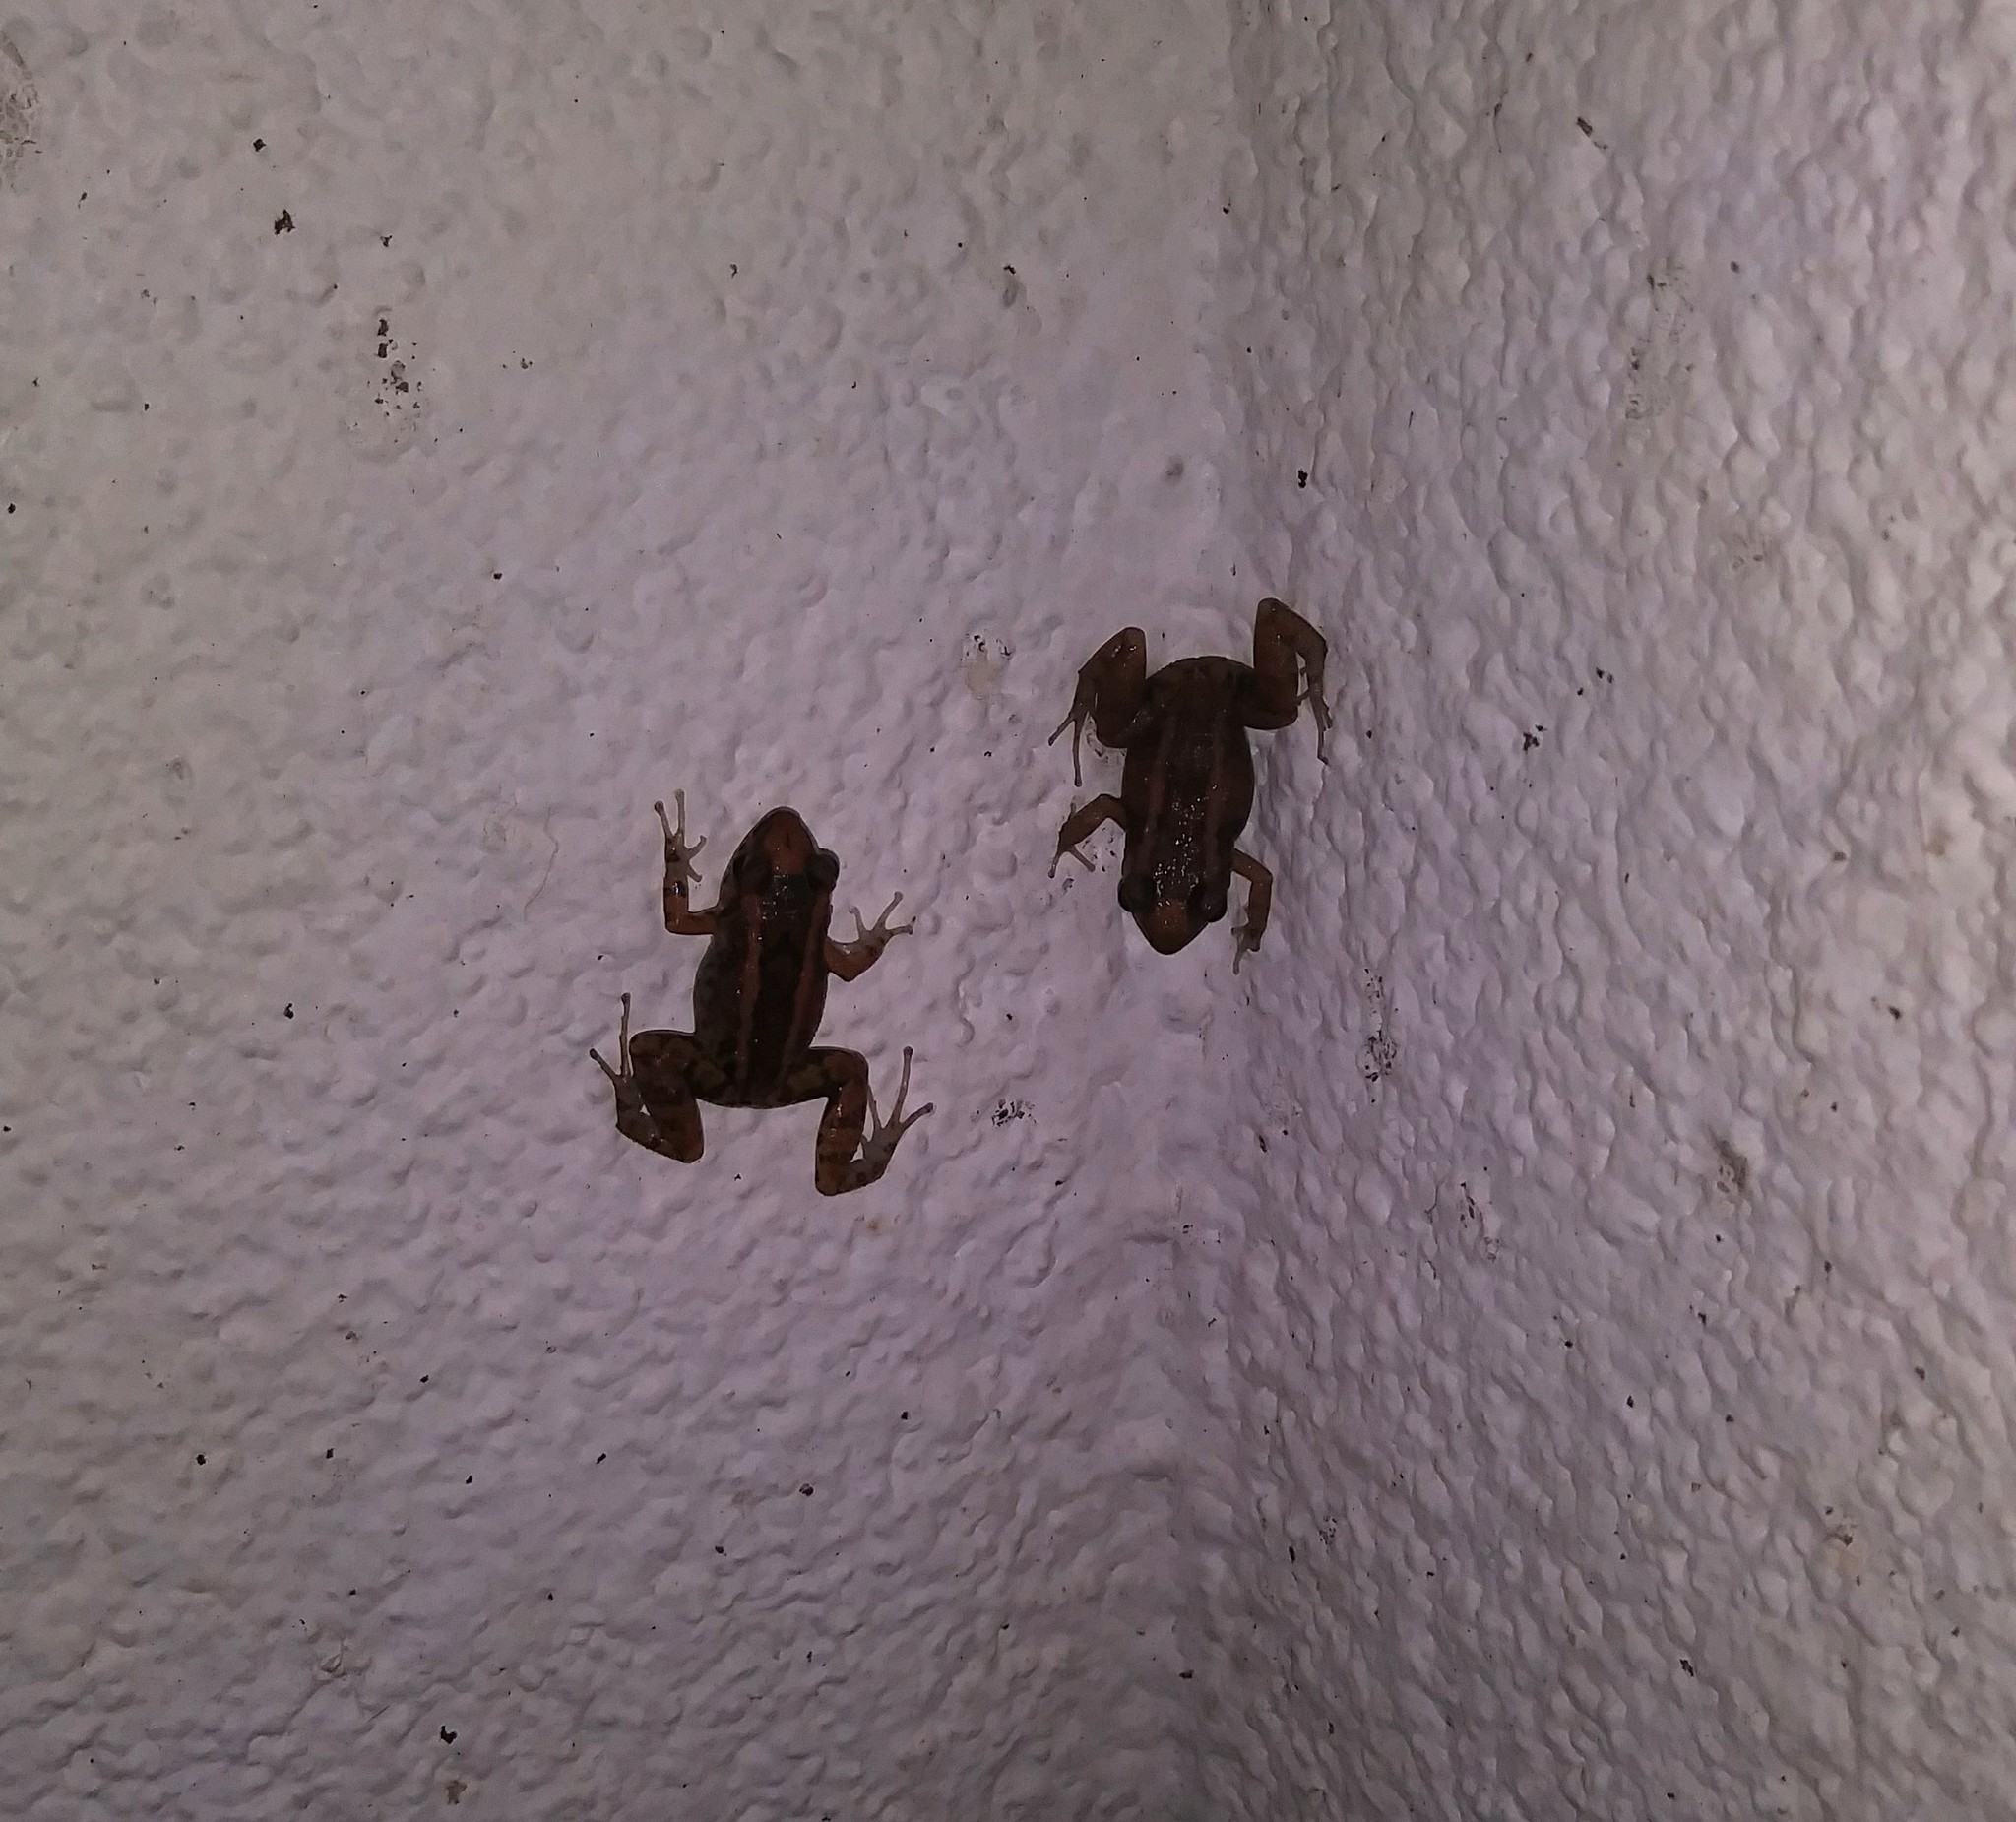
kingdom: Animalia
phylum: Chordata
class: Amphibia
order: Anura
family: Eleutherodactylidae
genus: Eleutherodactylus
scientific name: Eleutherodactylus planirostris
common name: Greenhouse frog
